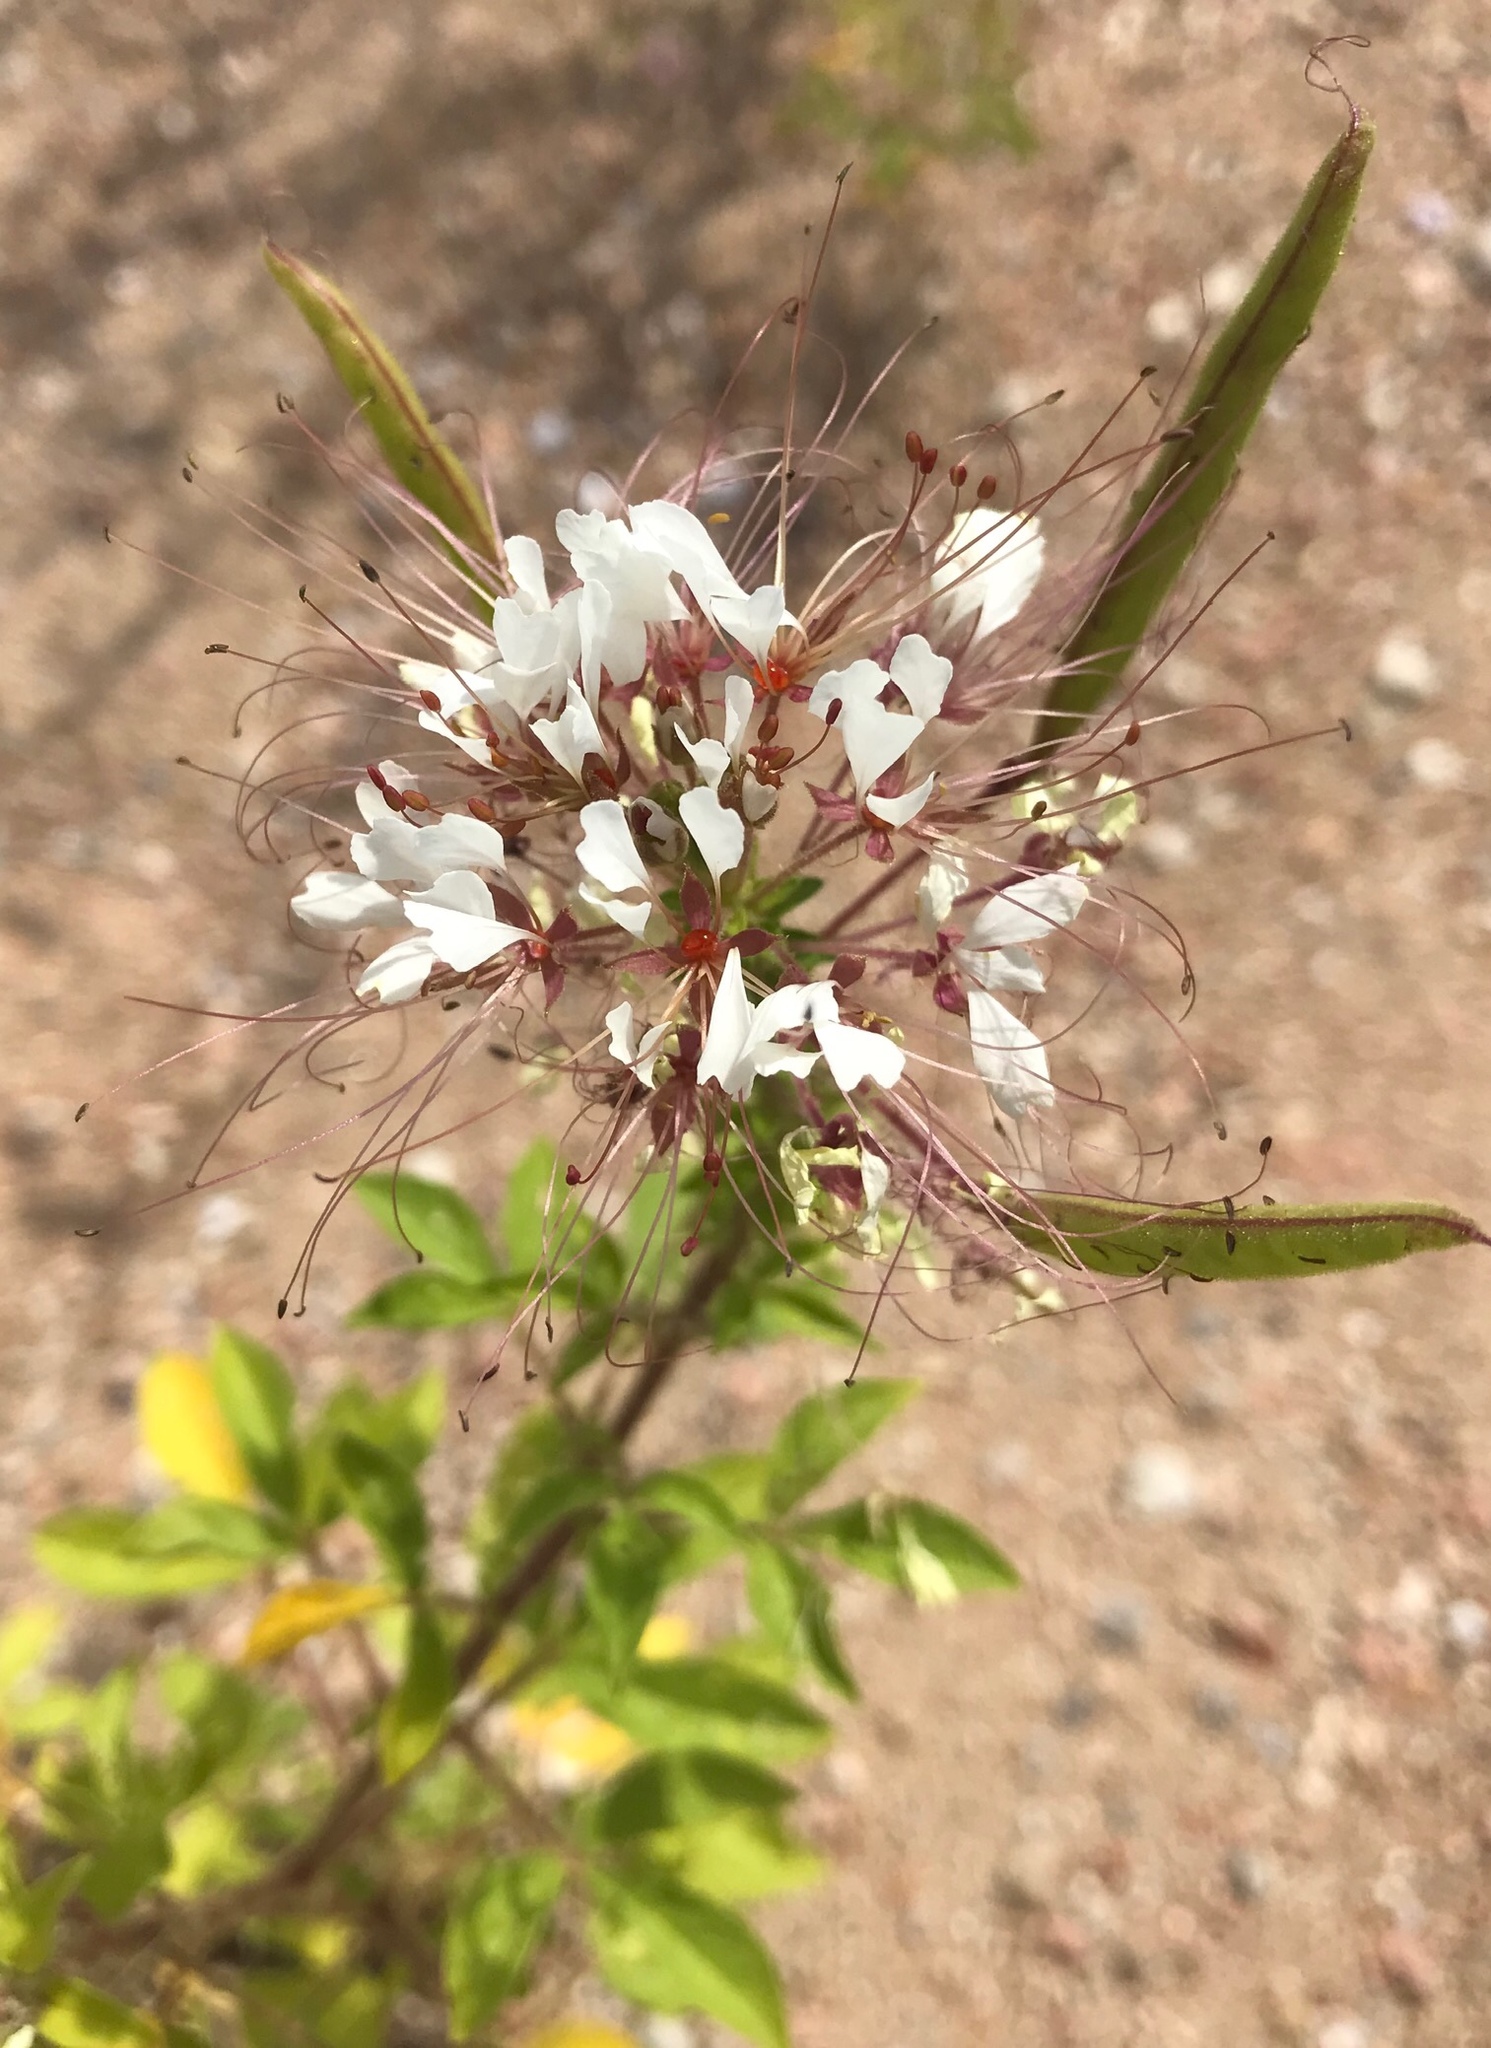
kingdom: Plantae
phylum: Tracheophyta
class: Magnoliopsida
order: Brassicales
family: Cleomaceae
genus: Polanisia
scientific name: Polanisia dodecandra
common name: Clammyweed
